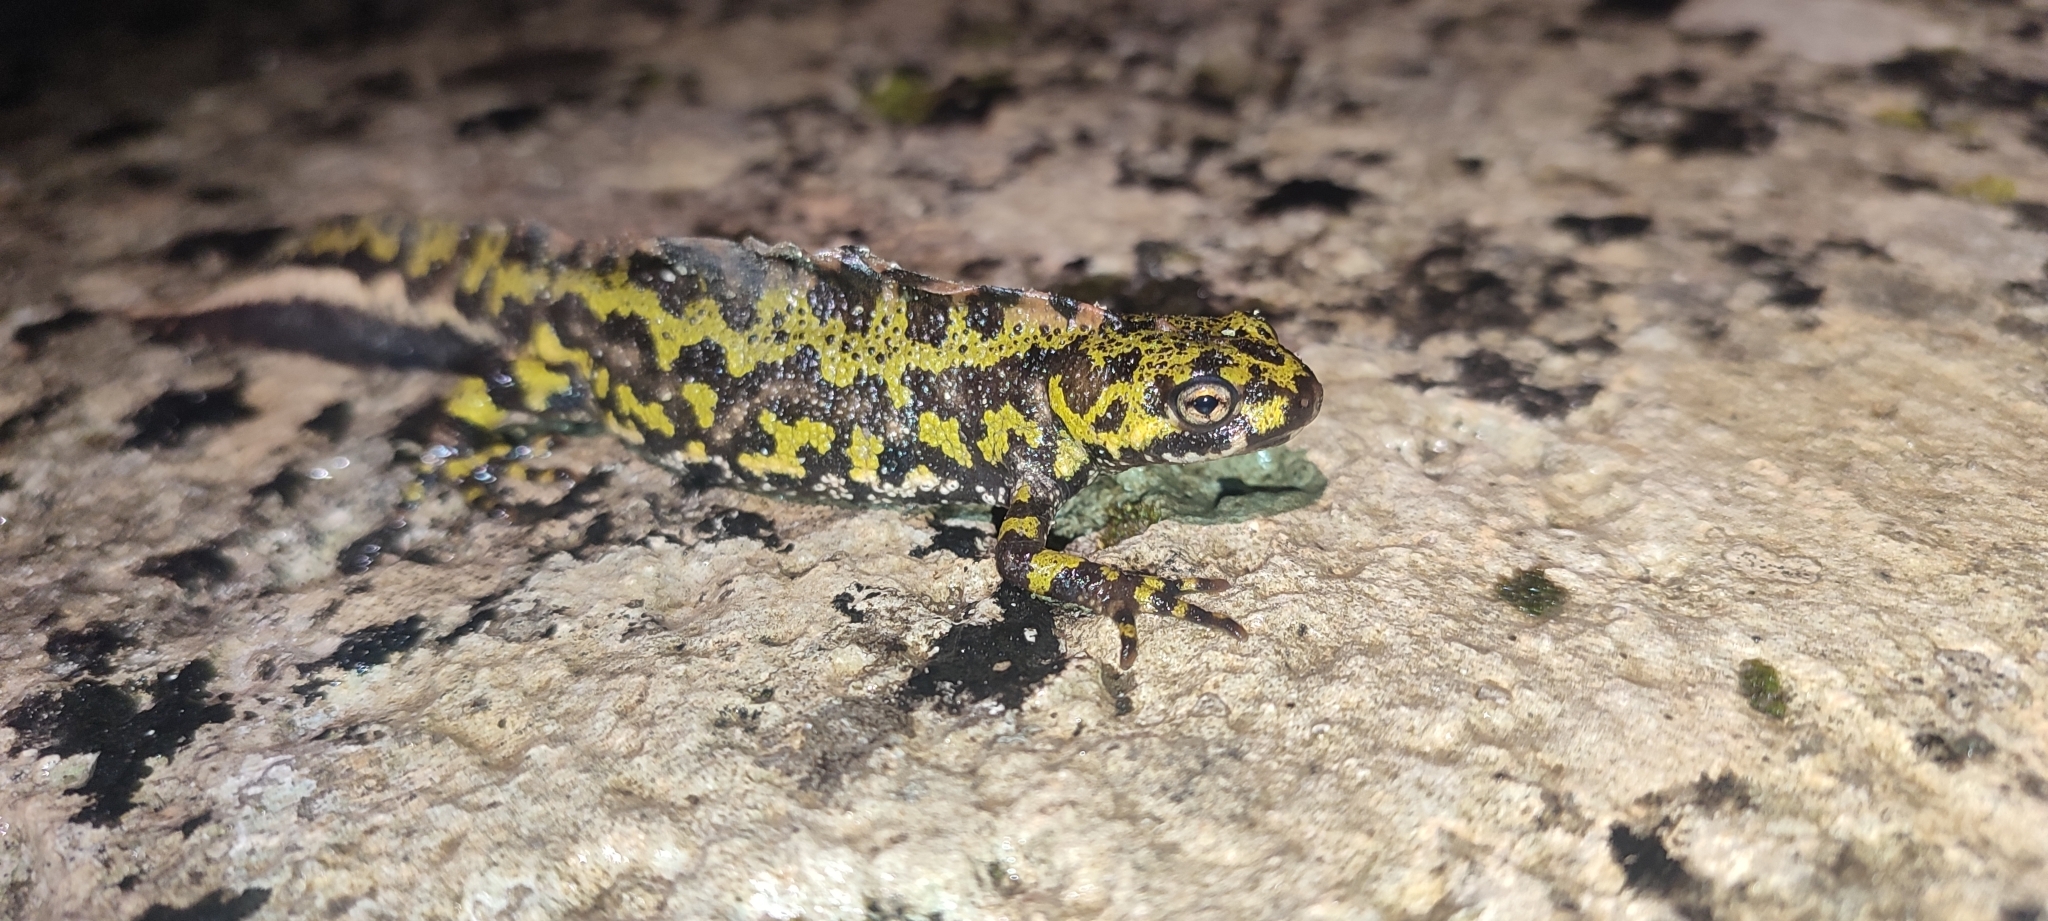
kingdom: Animalia
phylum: Chordata
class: Amphibia
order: Caudata
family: Salamandridae
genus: Triturus
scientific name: Triturus marmoratus
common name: Marbled newt
